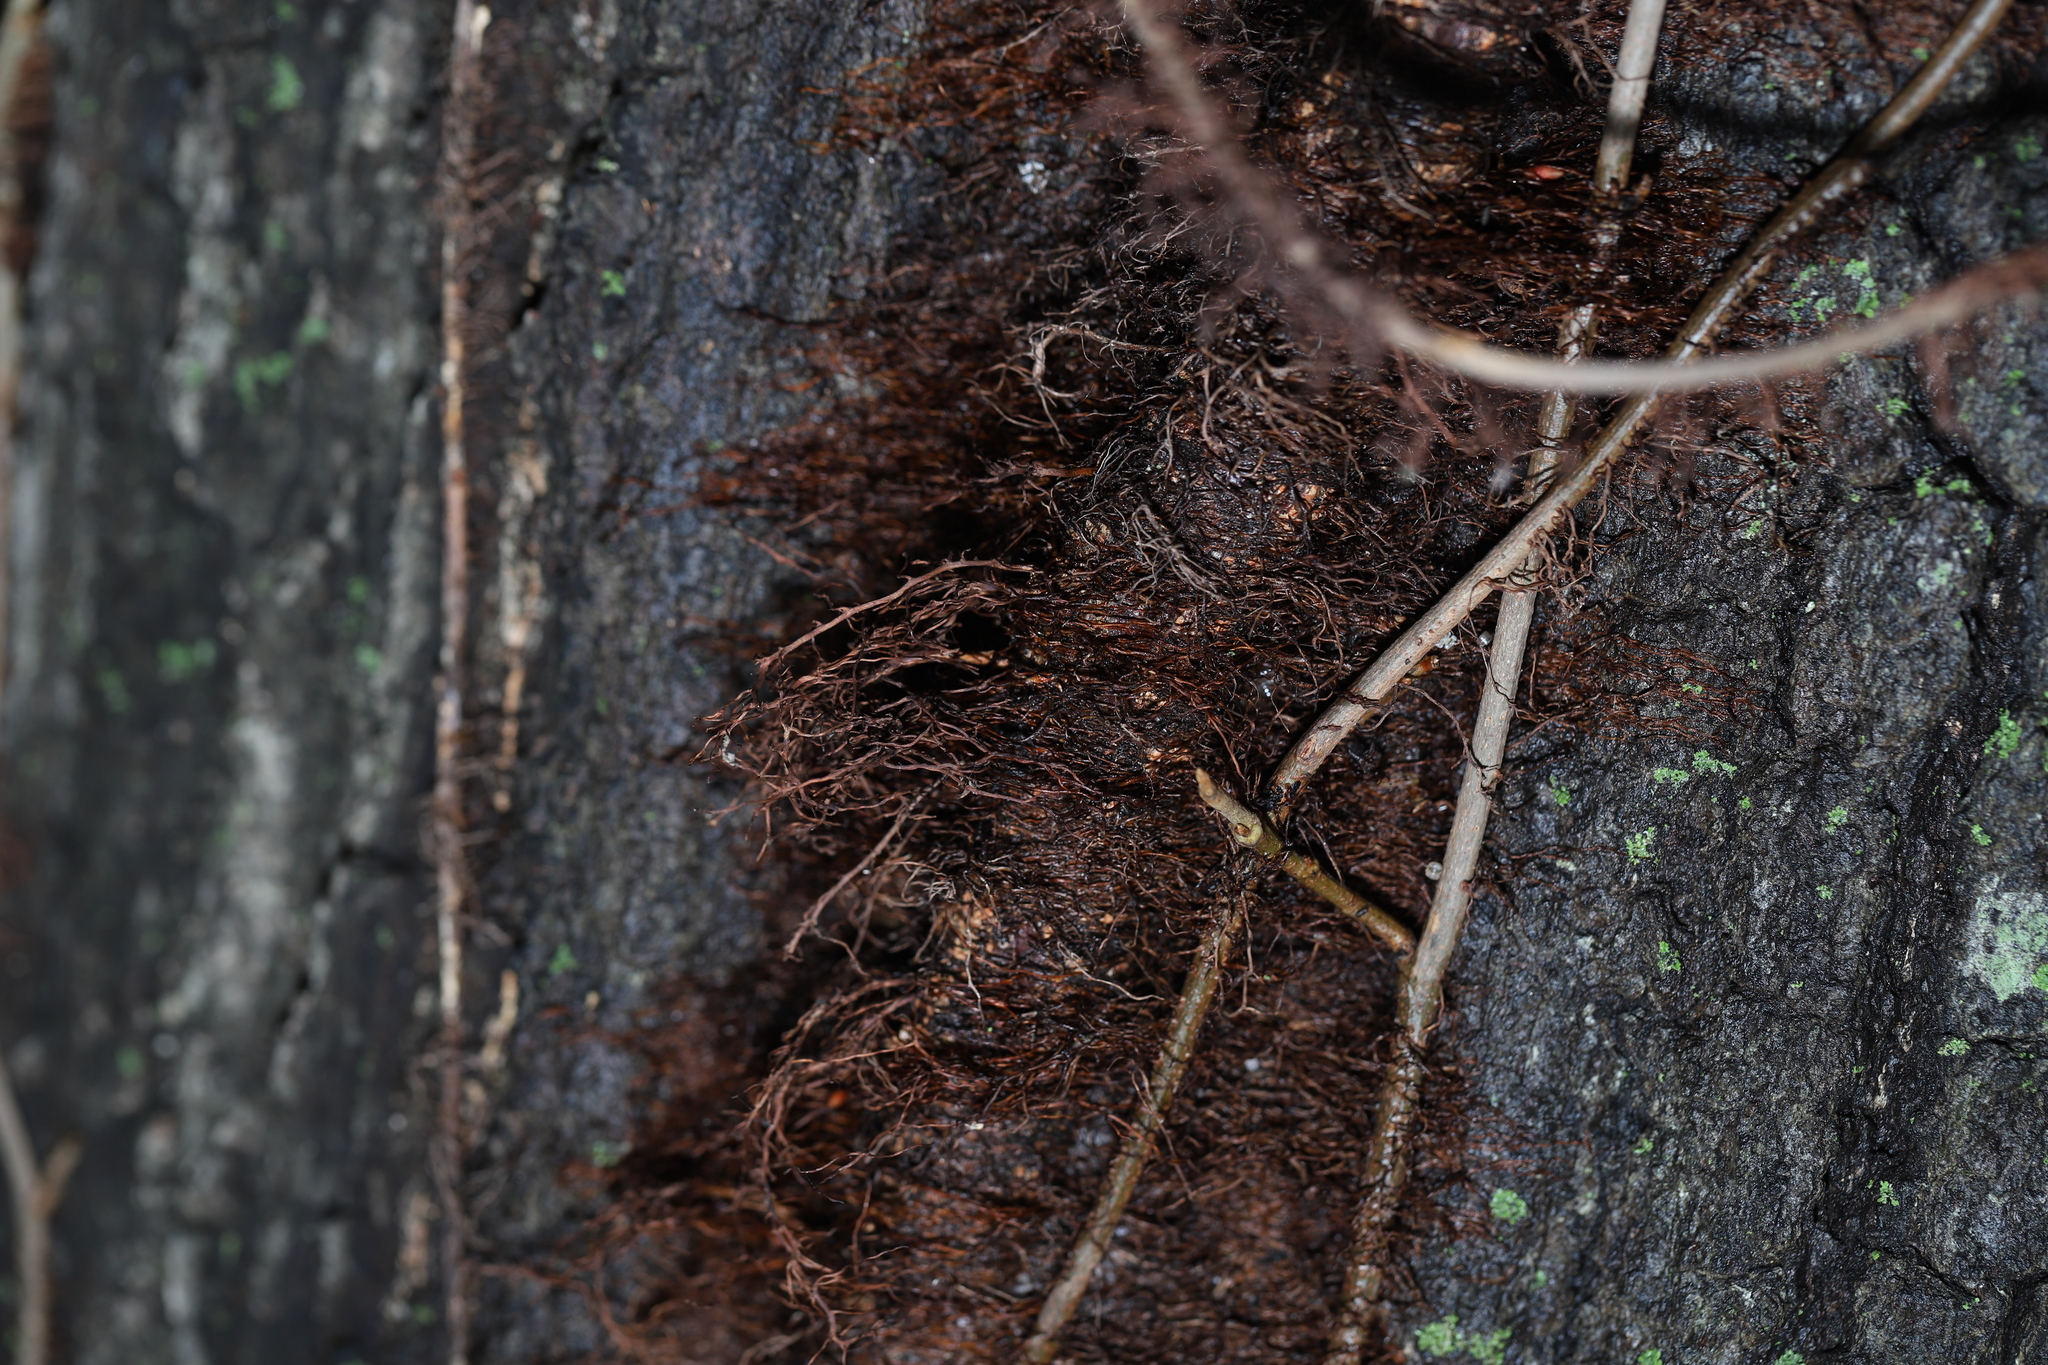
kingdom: Plantae
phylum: Tracheophyta
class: Magnoliopsida
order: Sapindales
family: Anacardiaceae
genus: Toxicodendron
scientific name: Toxicodendron radicans
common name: Poison ivy
